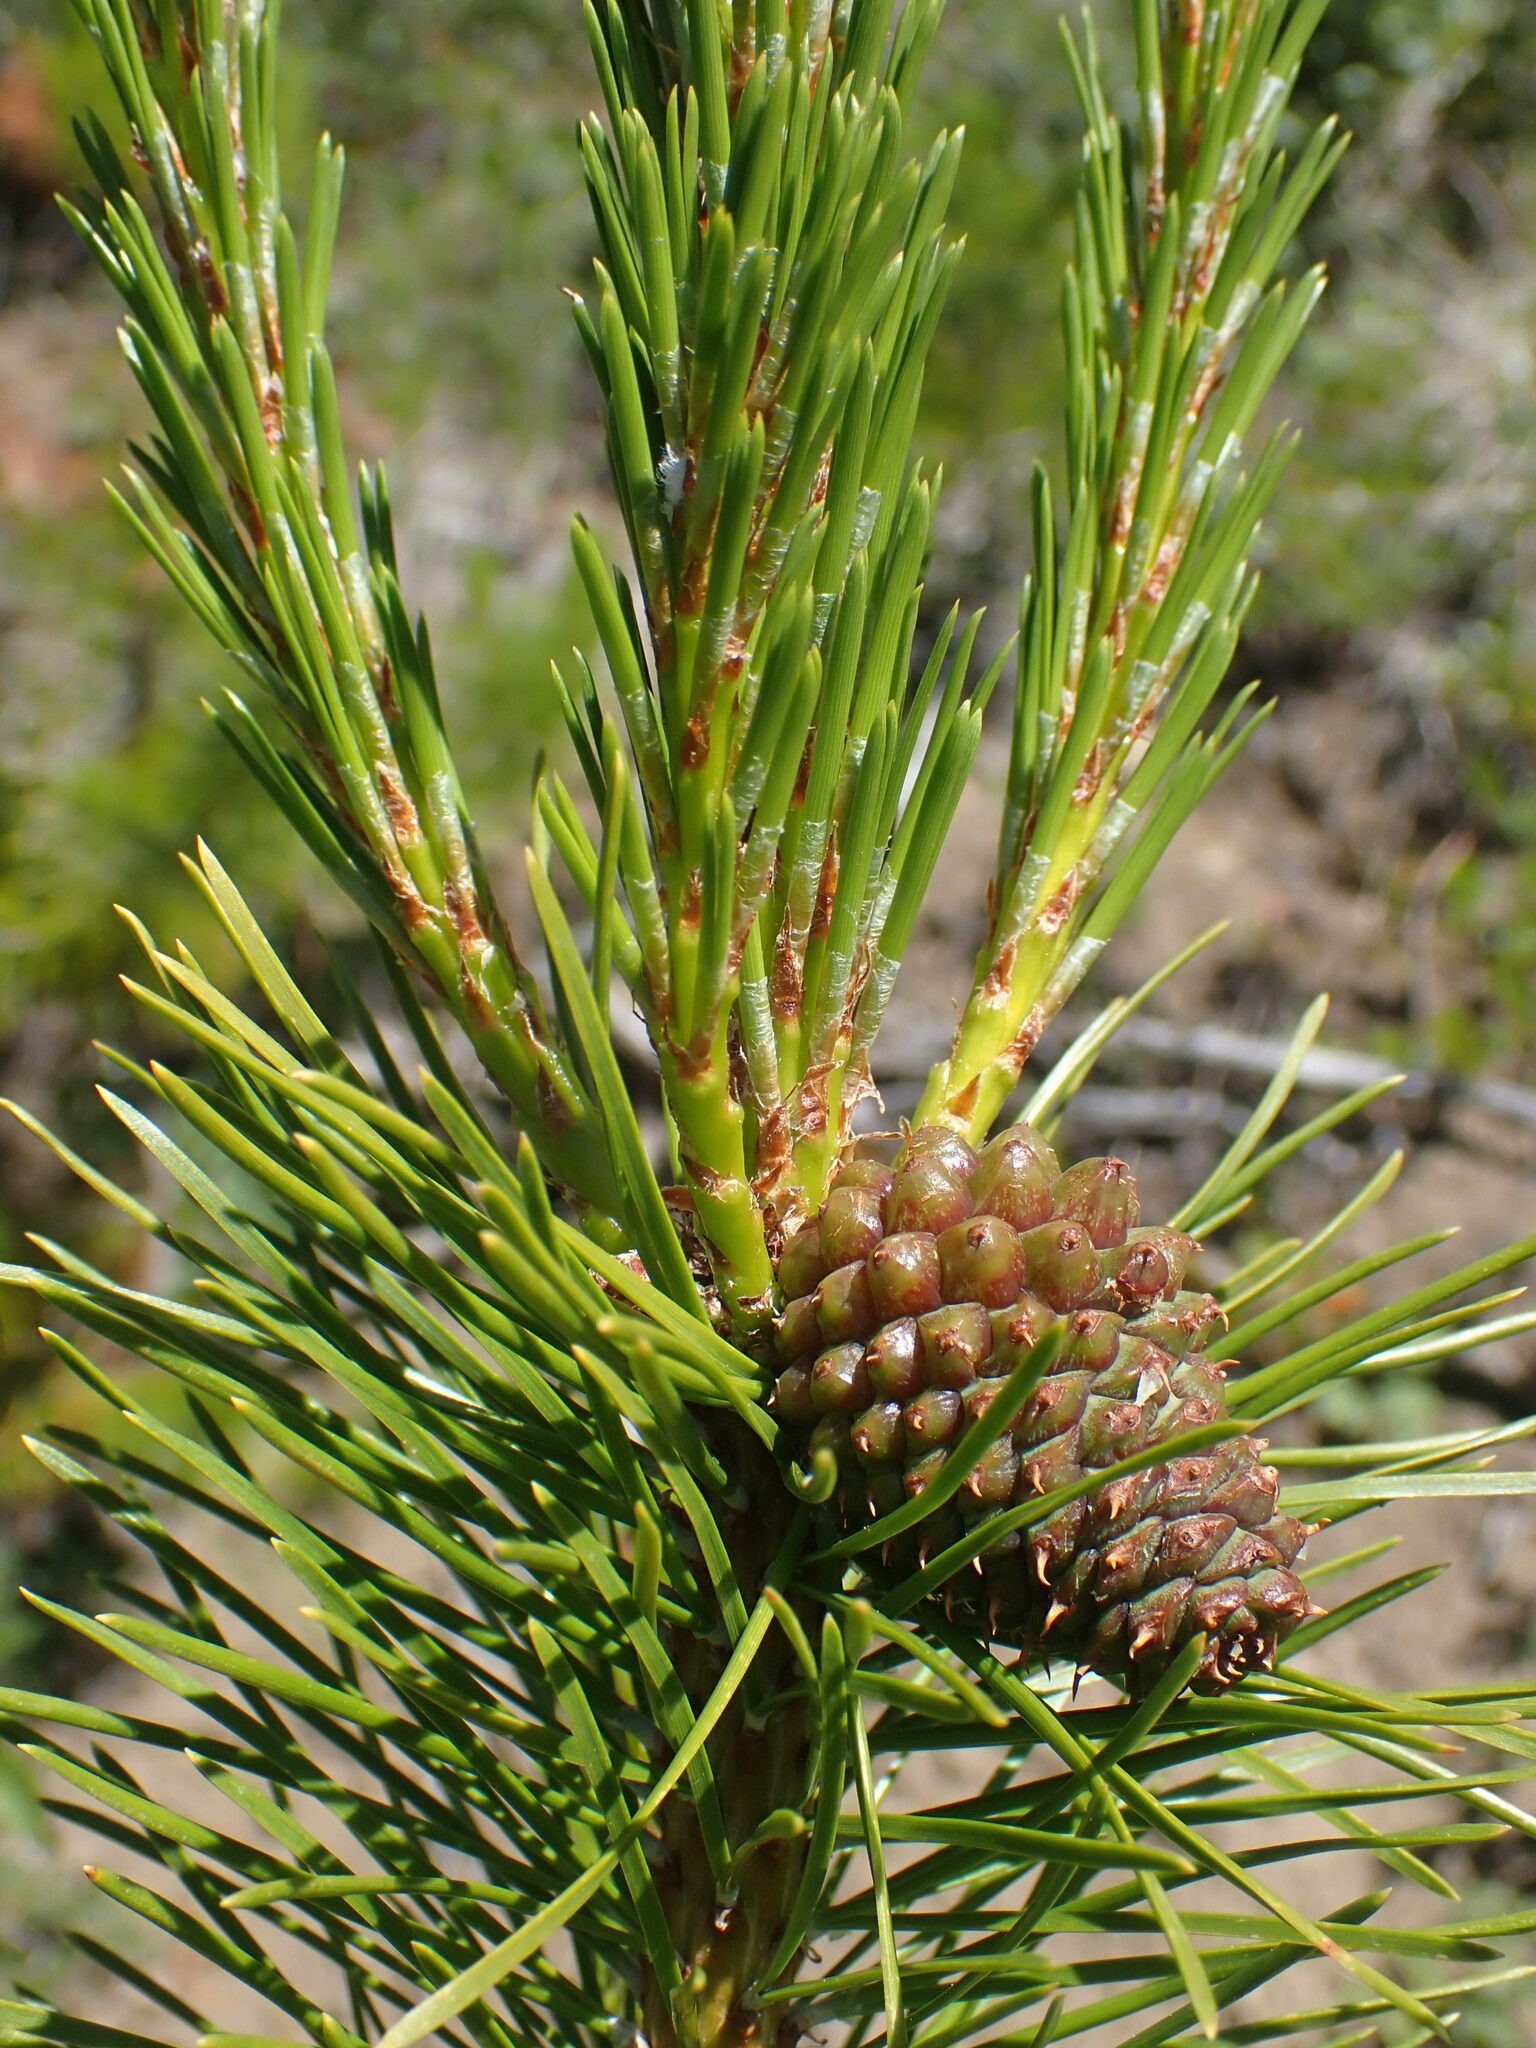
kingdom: Plantae
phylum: Tracheophyta
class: Pinopsida
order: Pinales
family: Pinaceae
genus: Pinus
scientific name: Pinus contorta
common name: Lodgepole pine
